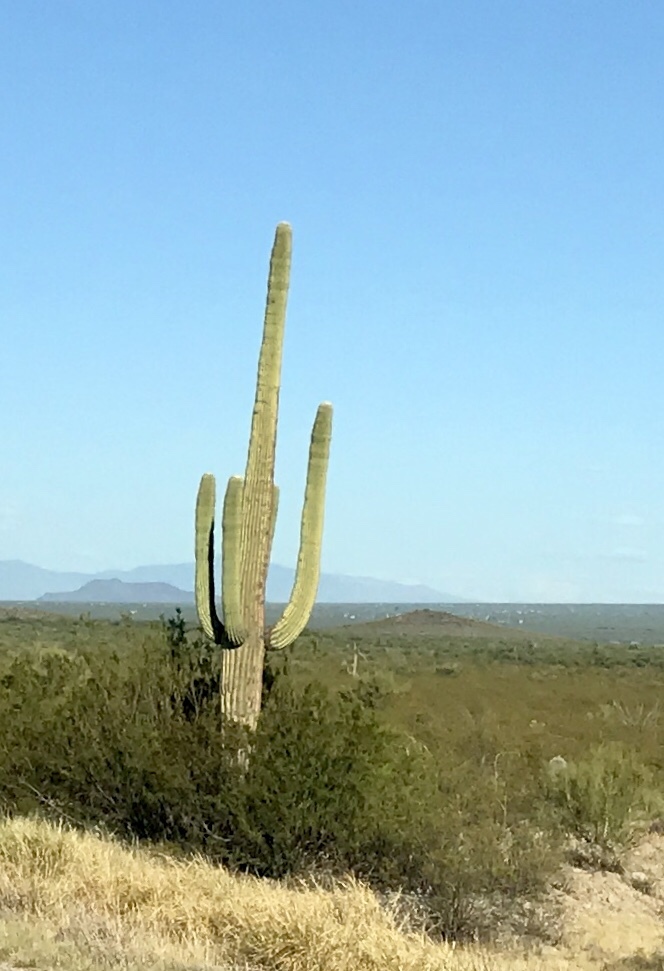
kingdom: Plantae
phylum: Tracheophyta
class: Magnoliopsida
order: Caryophyllales
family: Cactaceae
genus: Carnegiea
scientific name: Carnegiea gigantea
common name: Saguaro
